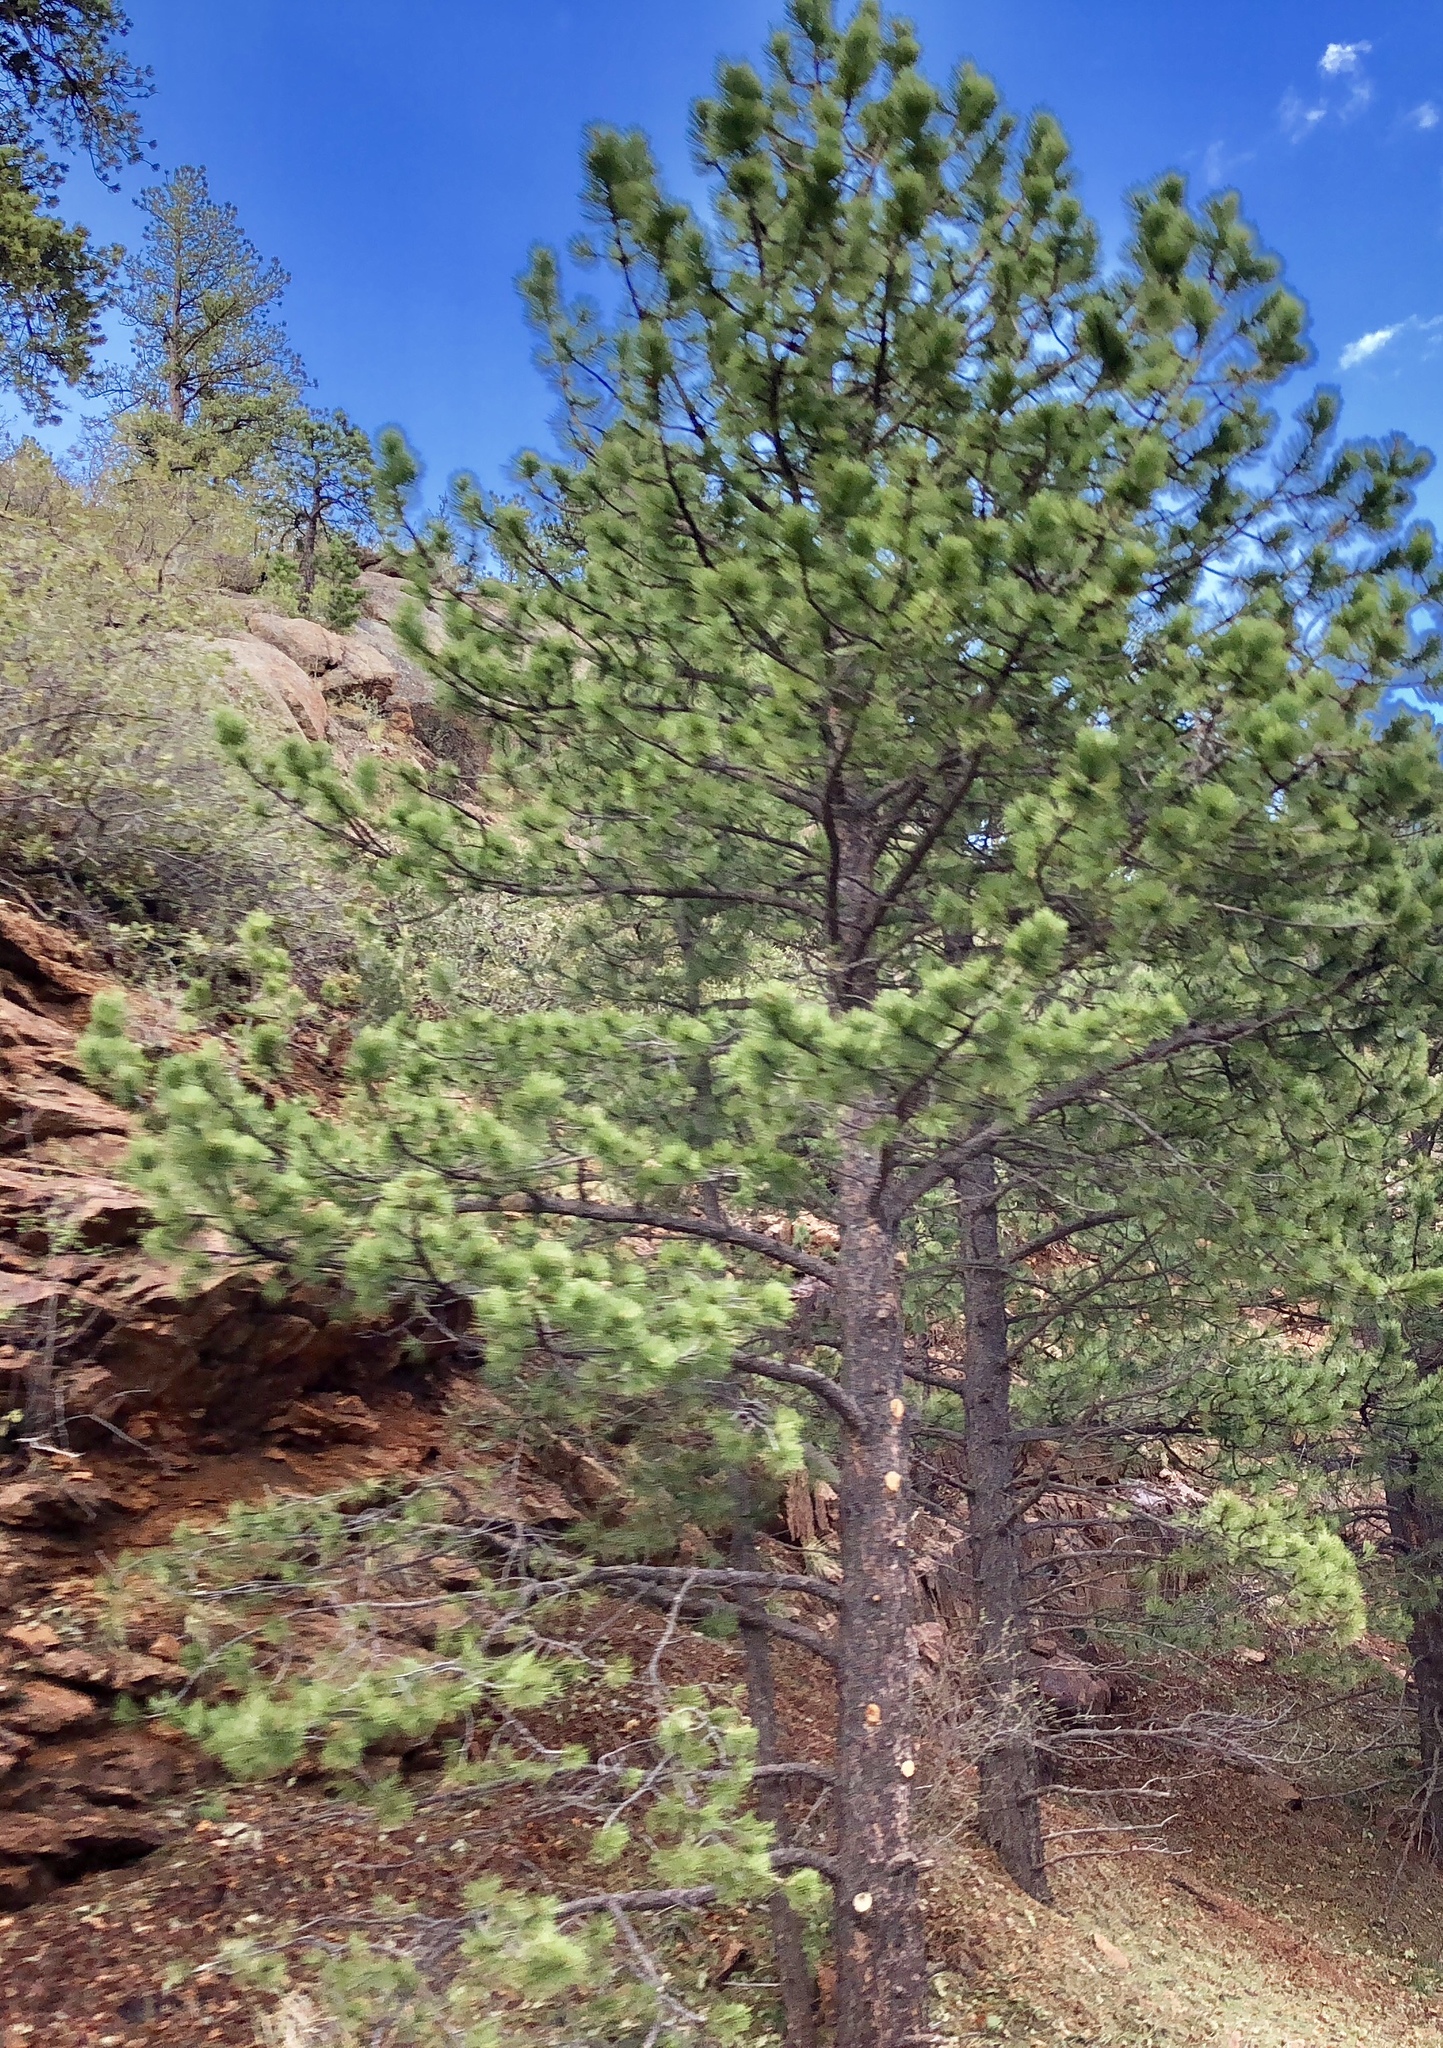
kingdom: Plantae
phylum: Tracheophyta
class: Pinopsida
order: Pinales
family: Pinaceae
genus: Pinus
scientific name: Pinus ponderosa
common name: Western yellow-pine
